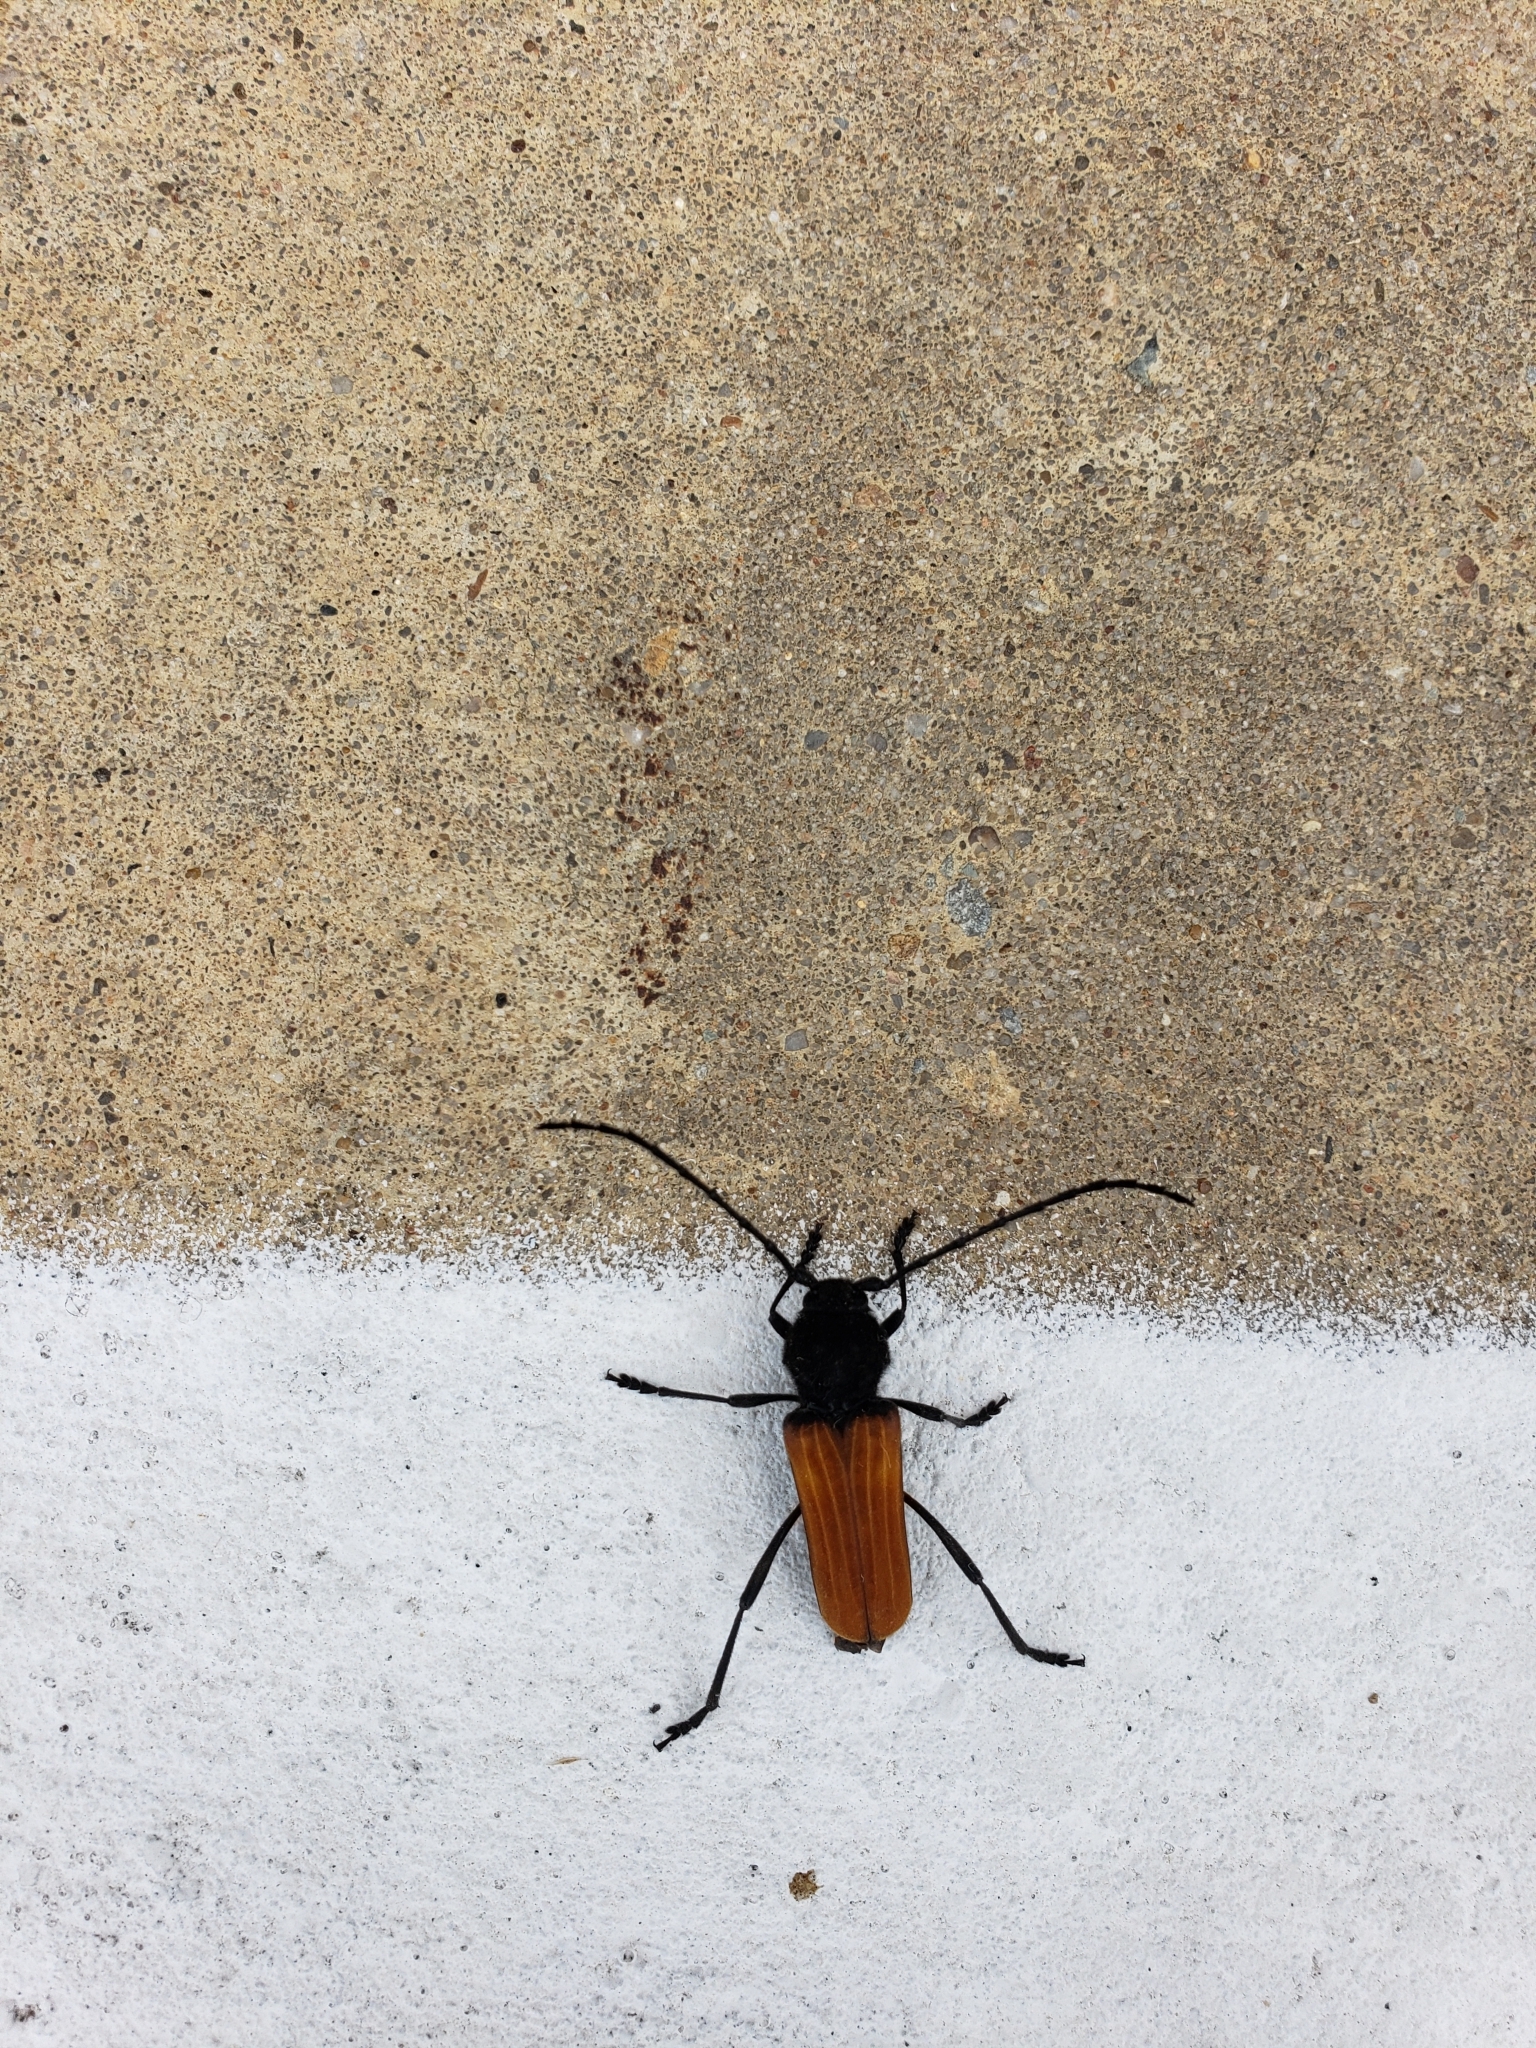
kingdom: Animalia
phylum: Arthropoda
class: Insecta
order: Coleoptera
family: Cerambycidae
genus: Tragidion
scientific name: Tragidion coquus
